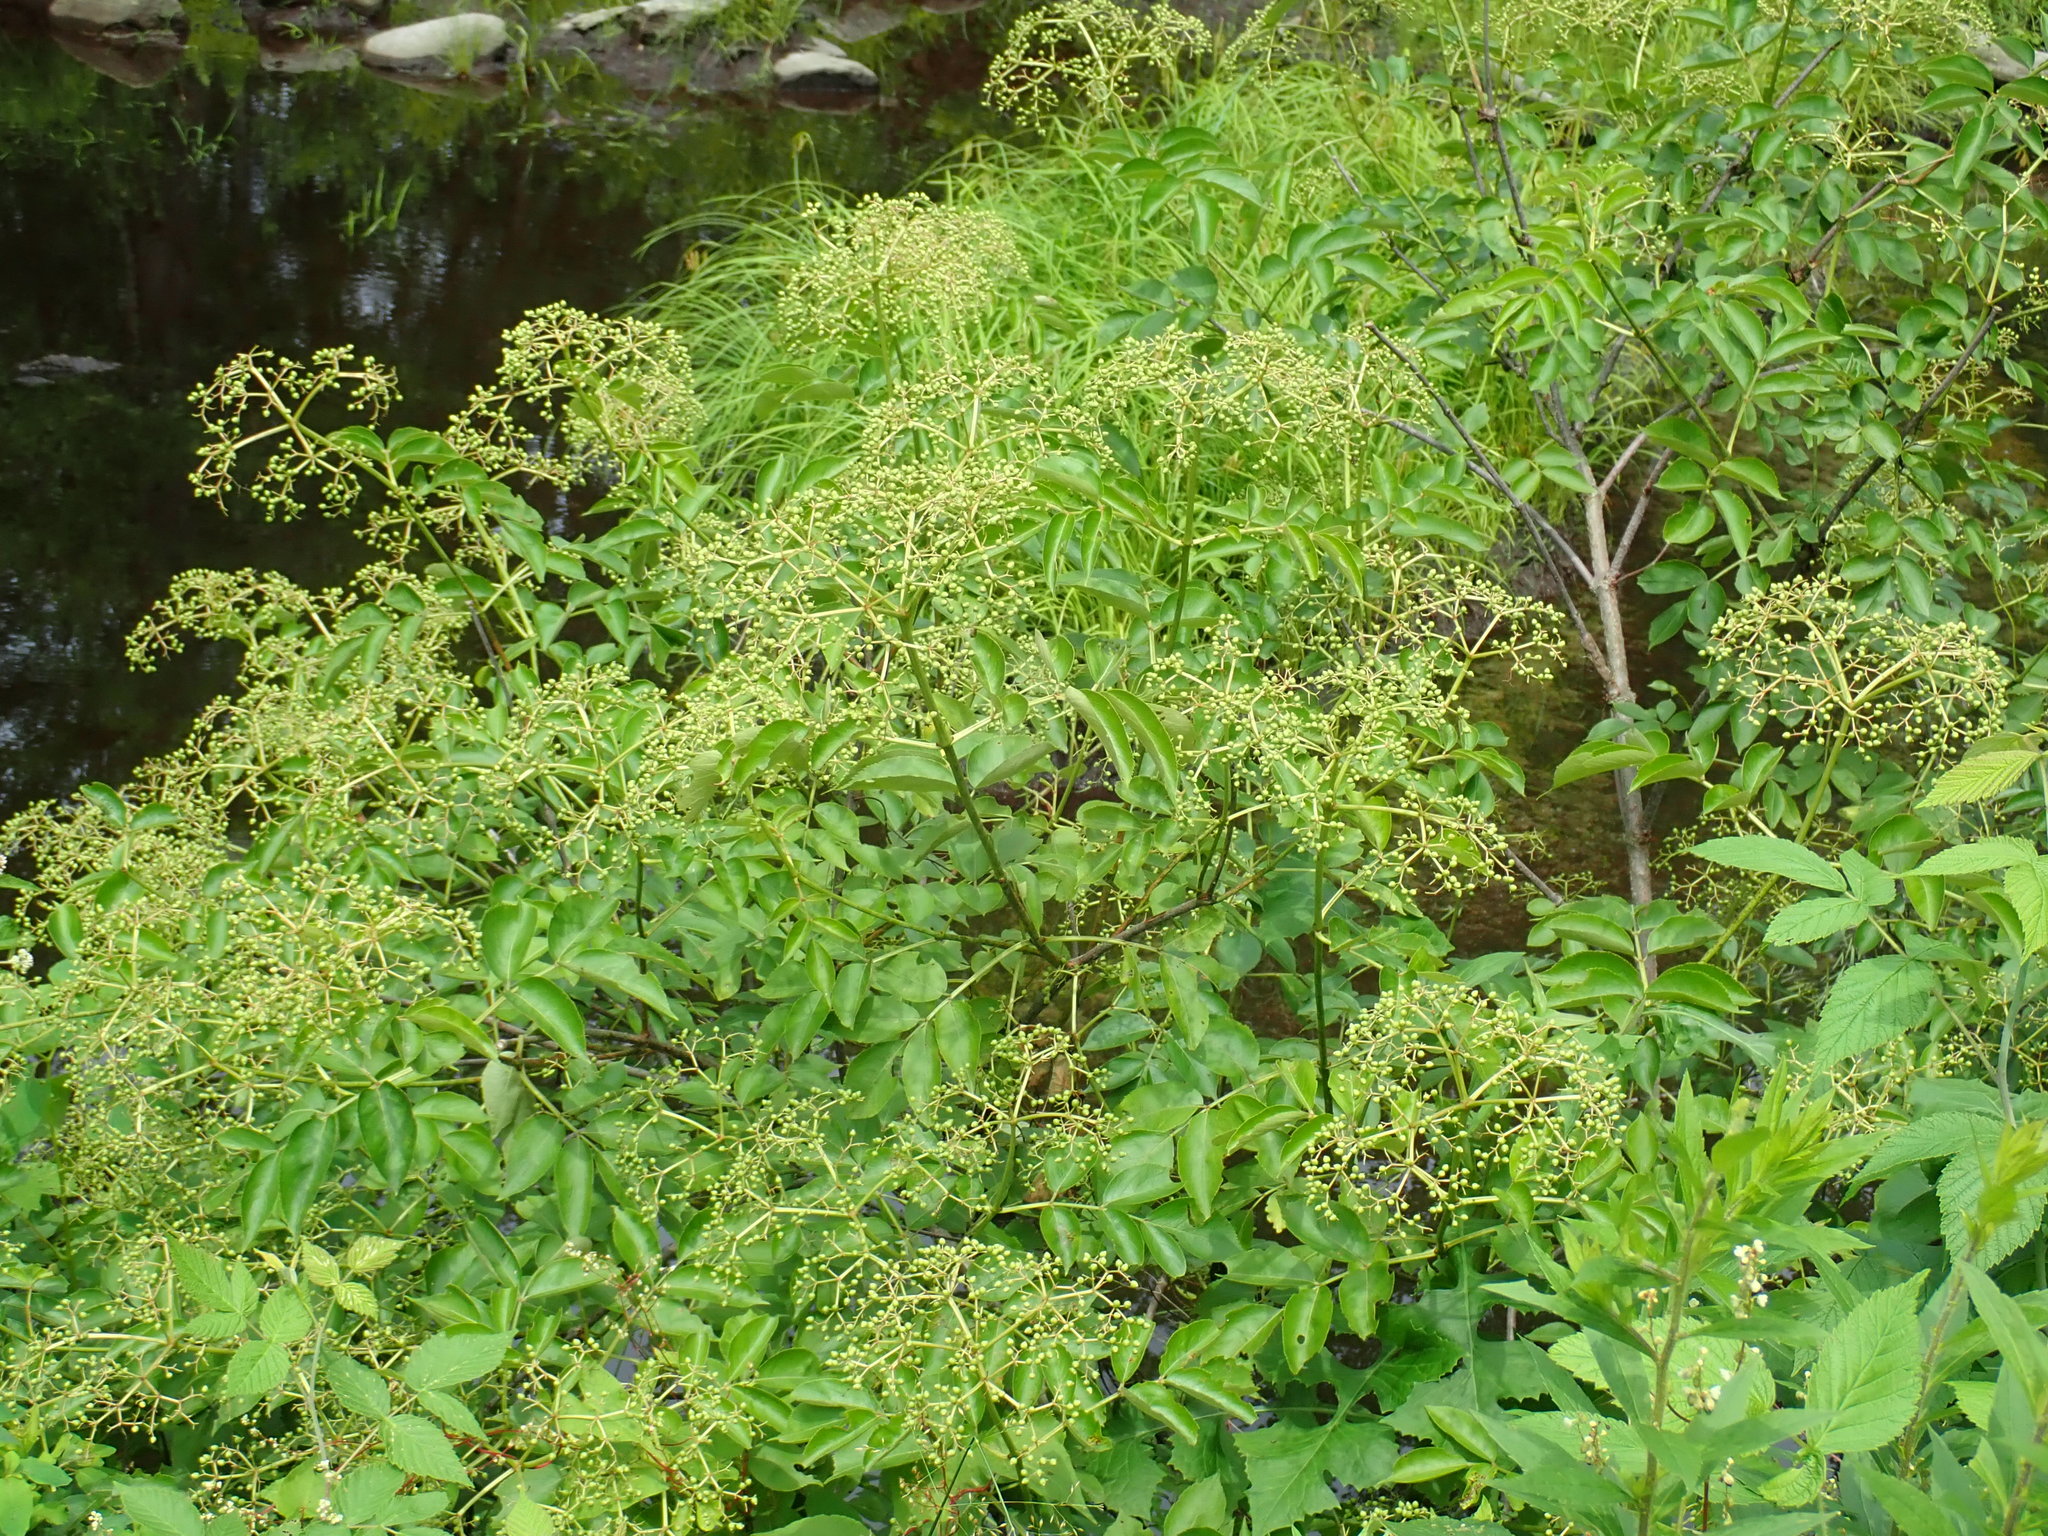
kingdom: Plantae
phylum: Tracheophyta
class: Magnoliopsida
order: Dipsacales
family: Viburnaceae
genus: Sambucus
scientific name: Sambucus canadensis
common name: American elder
